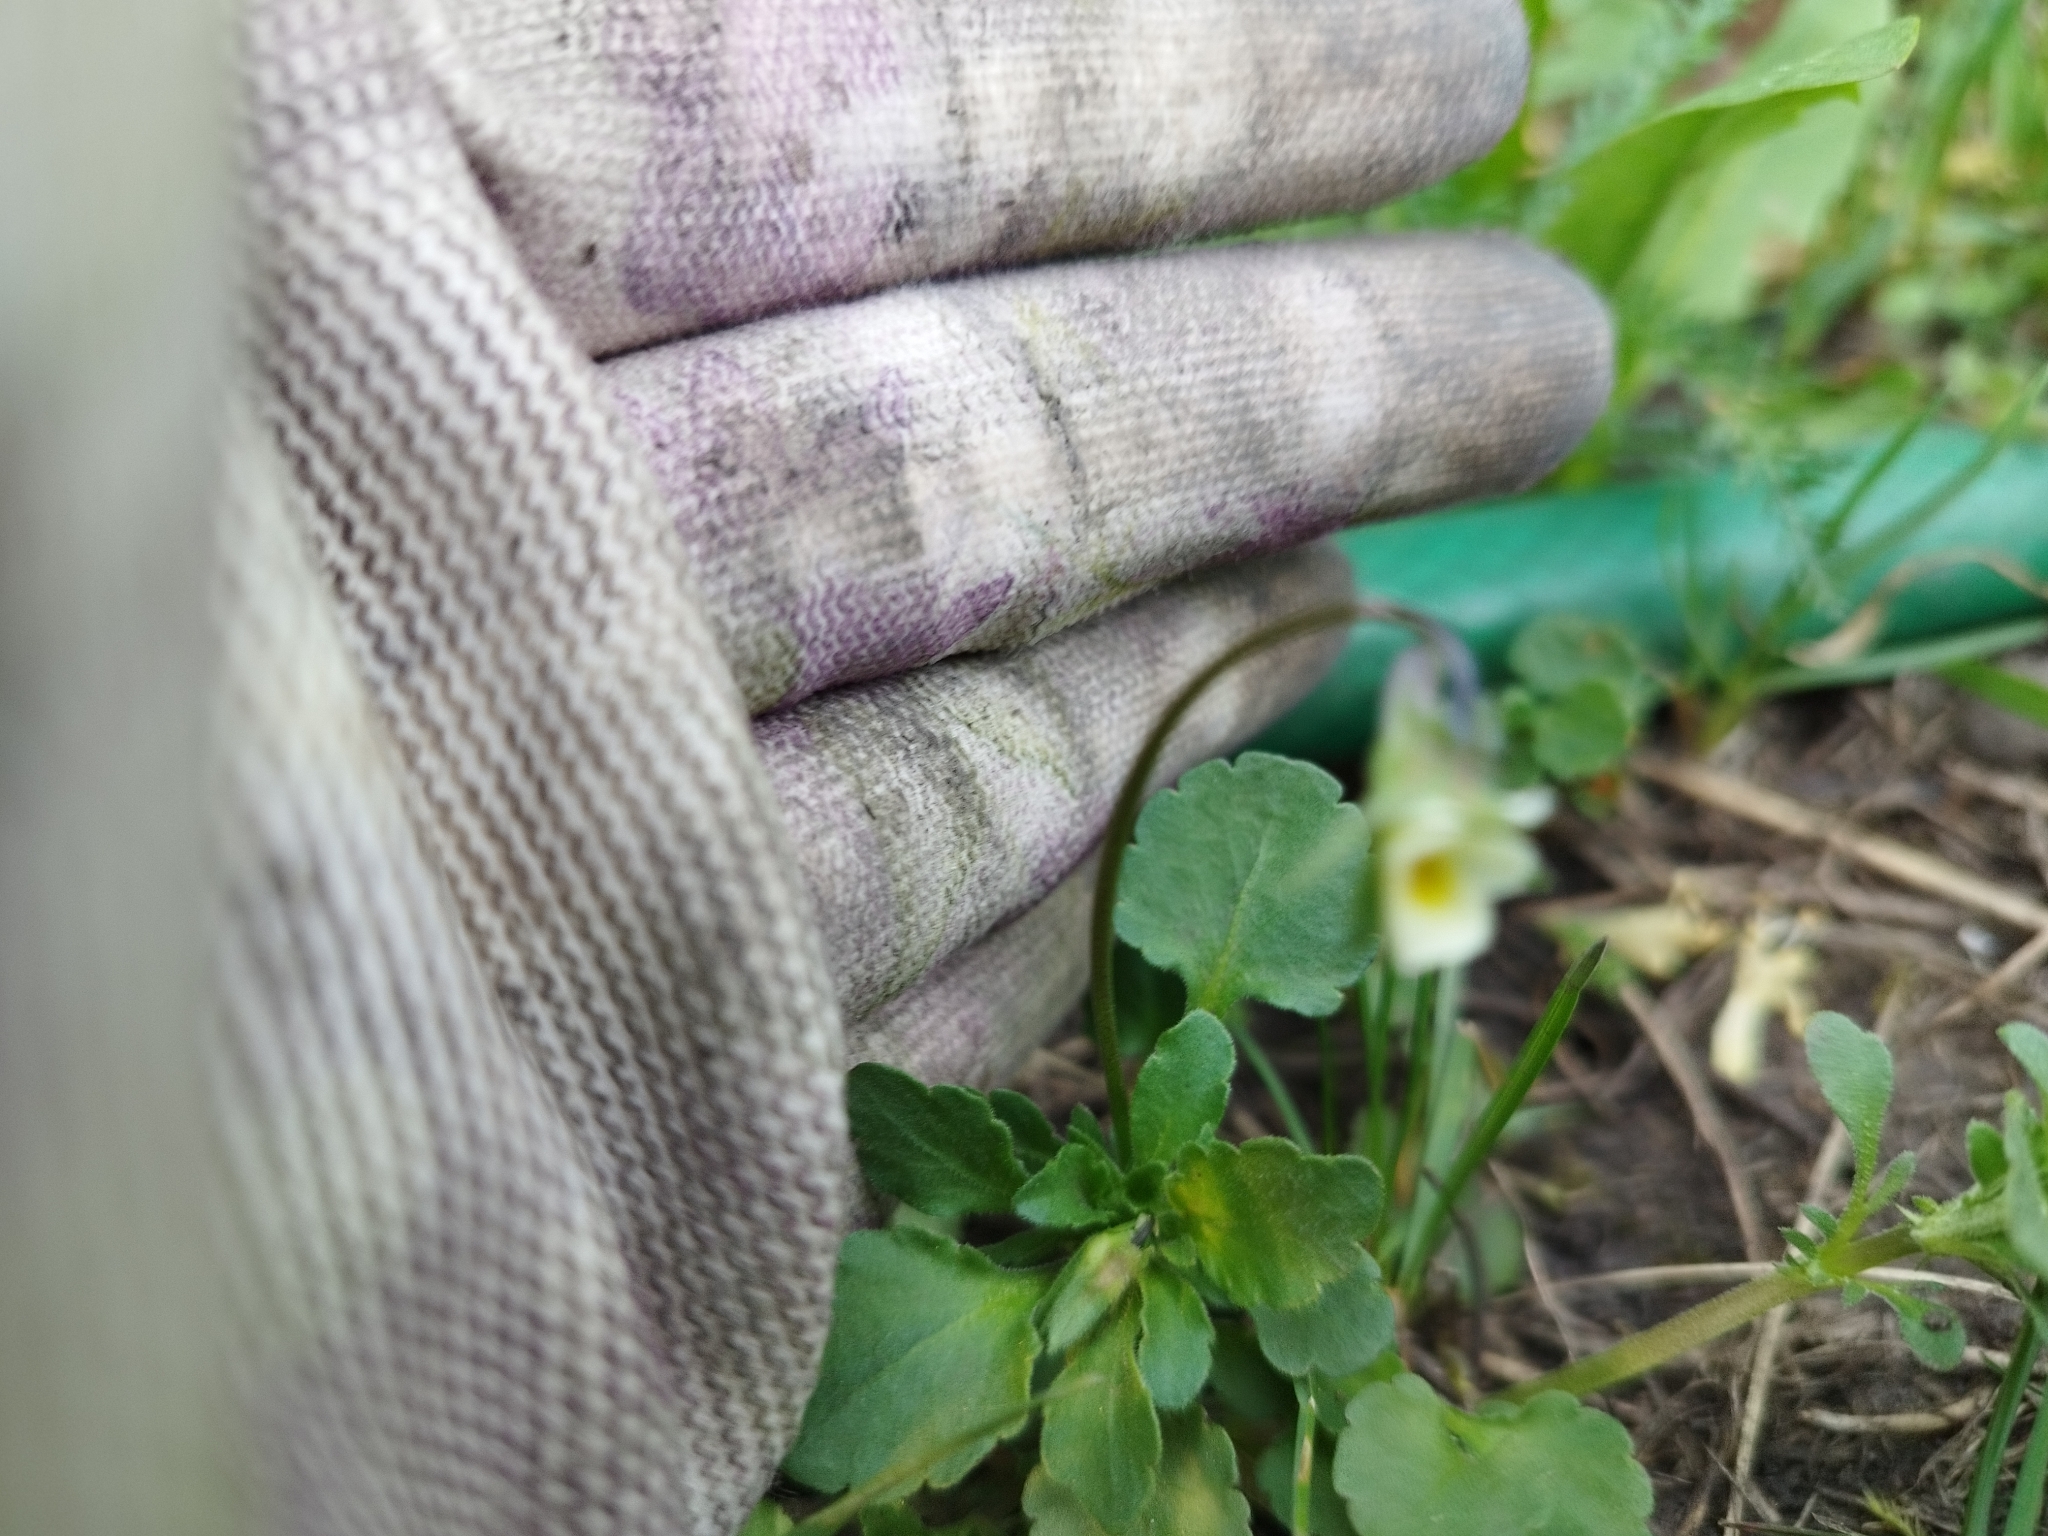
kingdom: Plantae
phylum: Tracheophyta
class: Magnoliopsida
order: Malpighiales
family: Violaceae
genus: Viola
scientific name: Viola arvensis
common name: Field pansy
